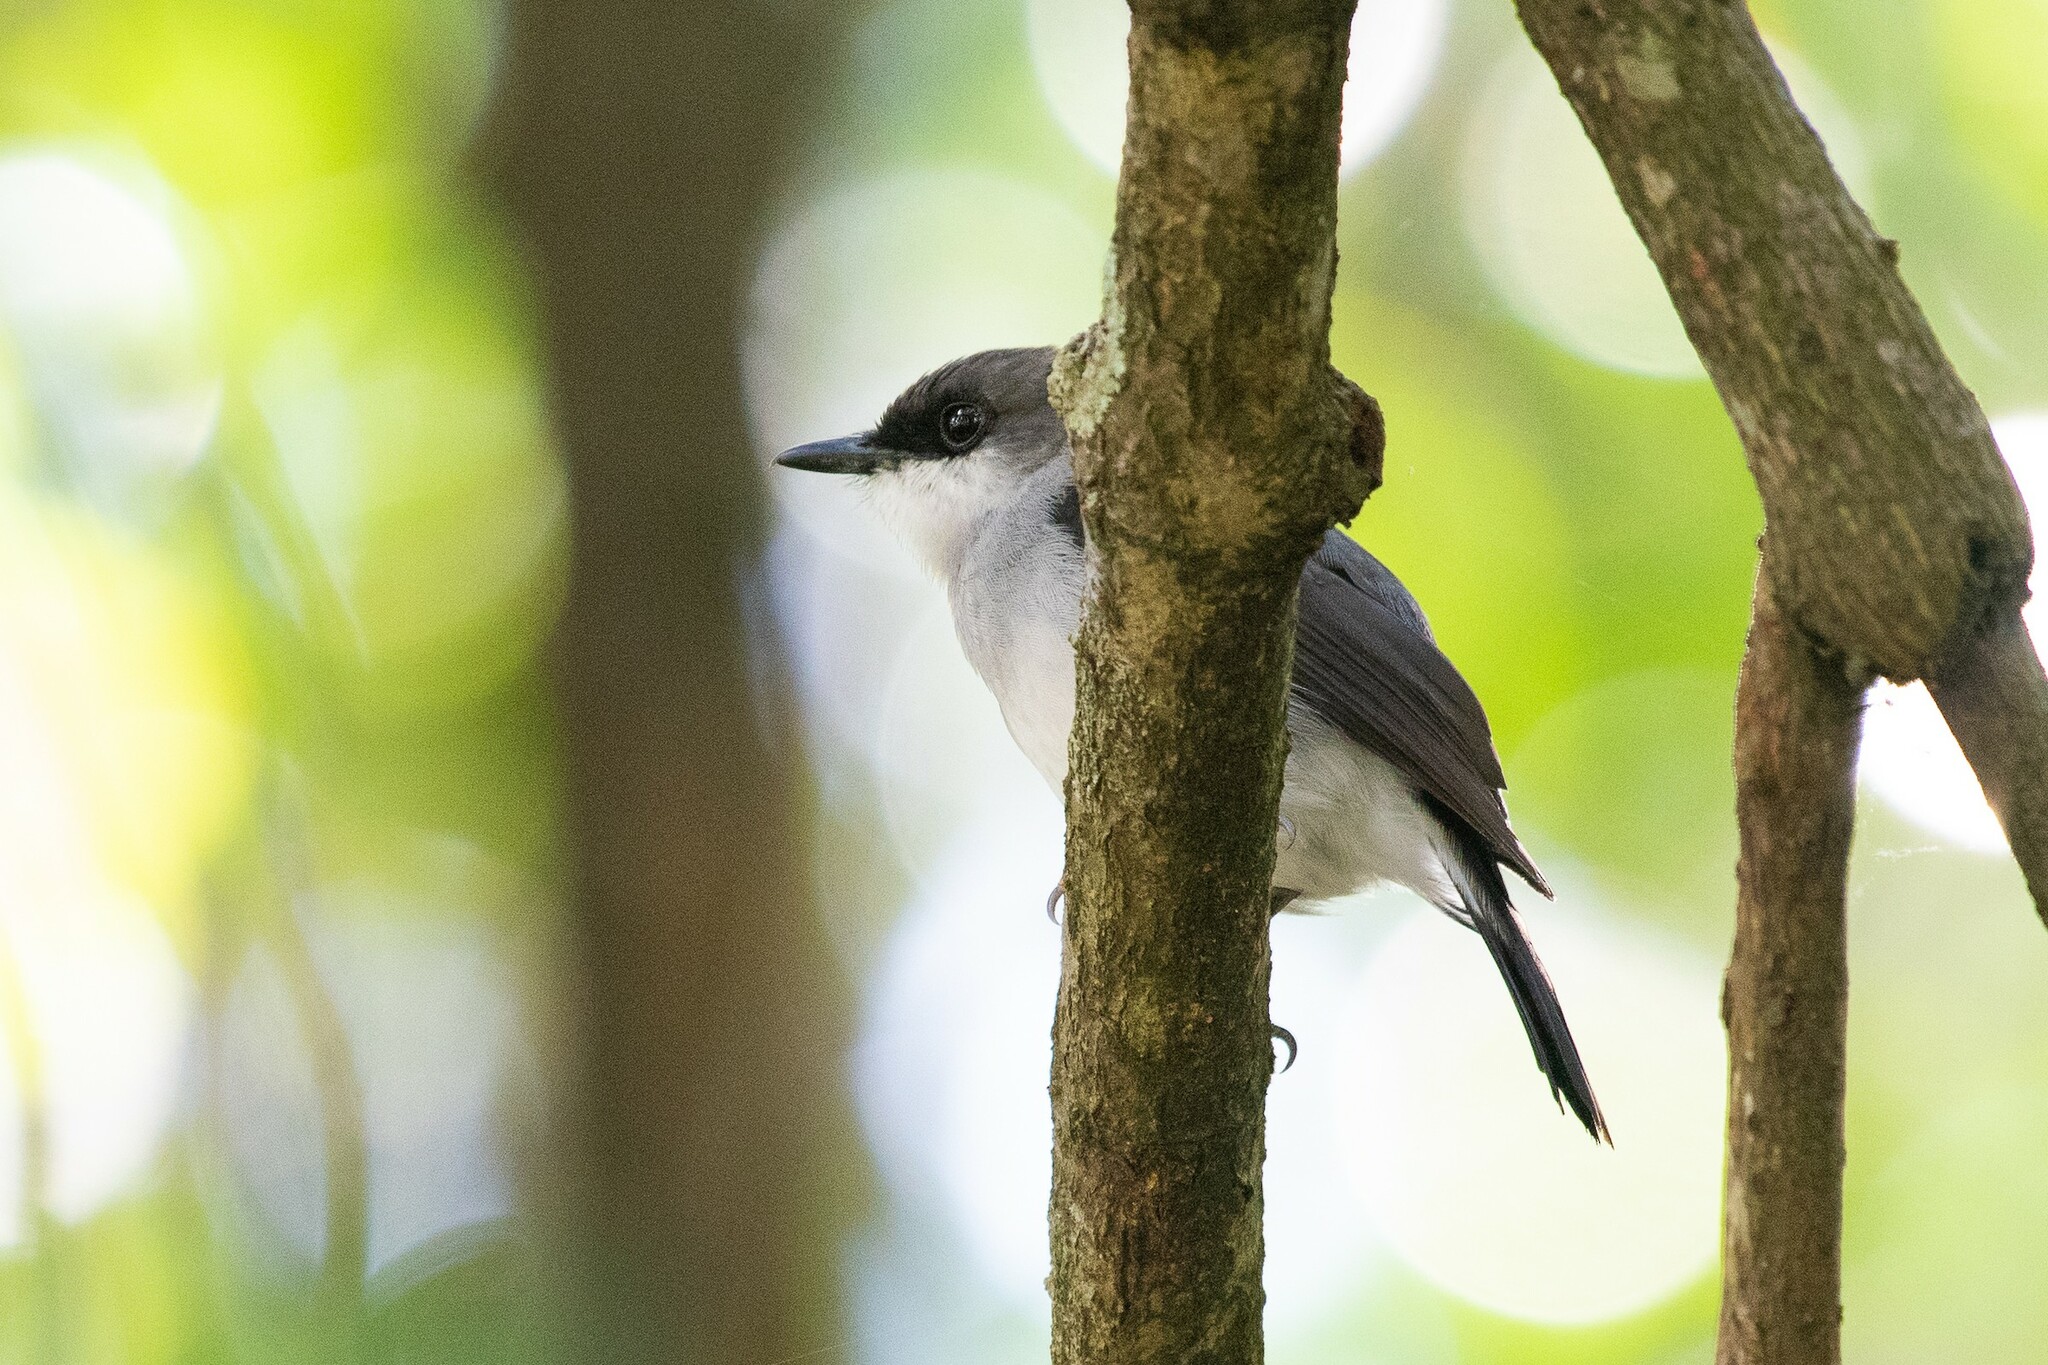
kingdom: Animalia
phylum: Chordata
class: Aves
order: Passeriformes
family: Petroicidae
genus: Melanodryas
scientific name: Melanodryas
